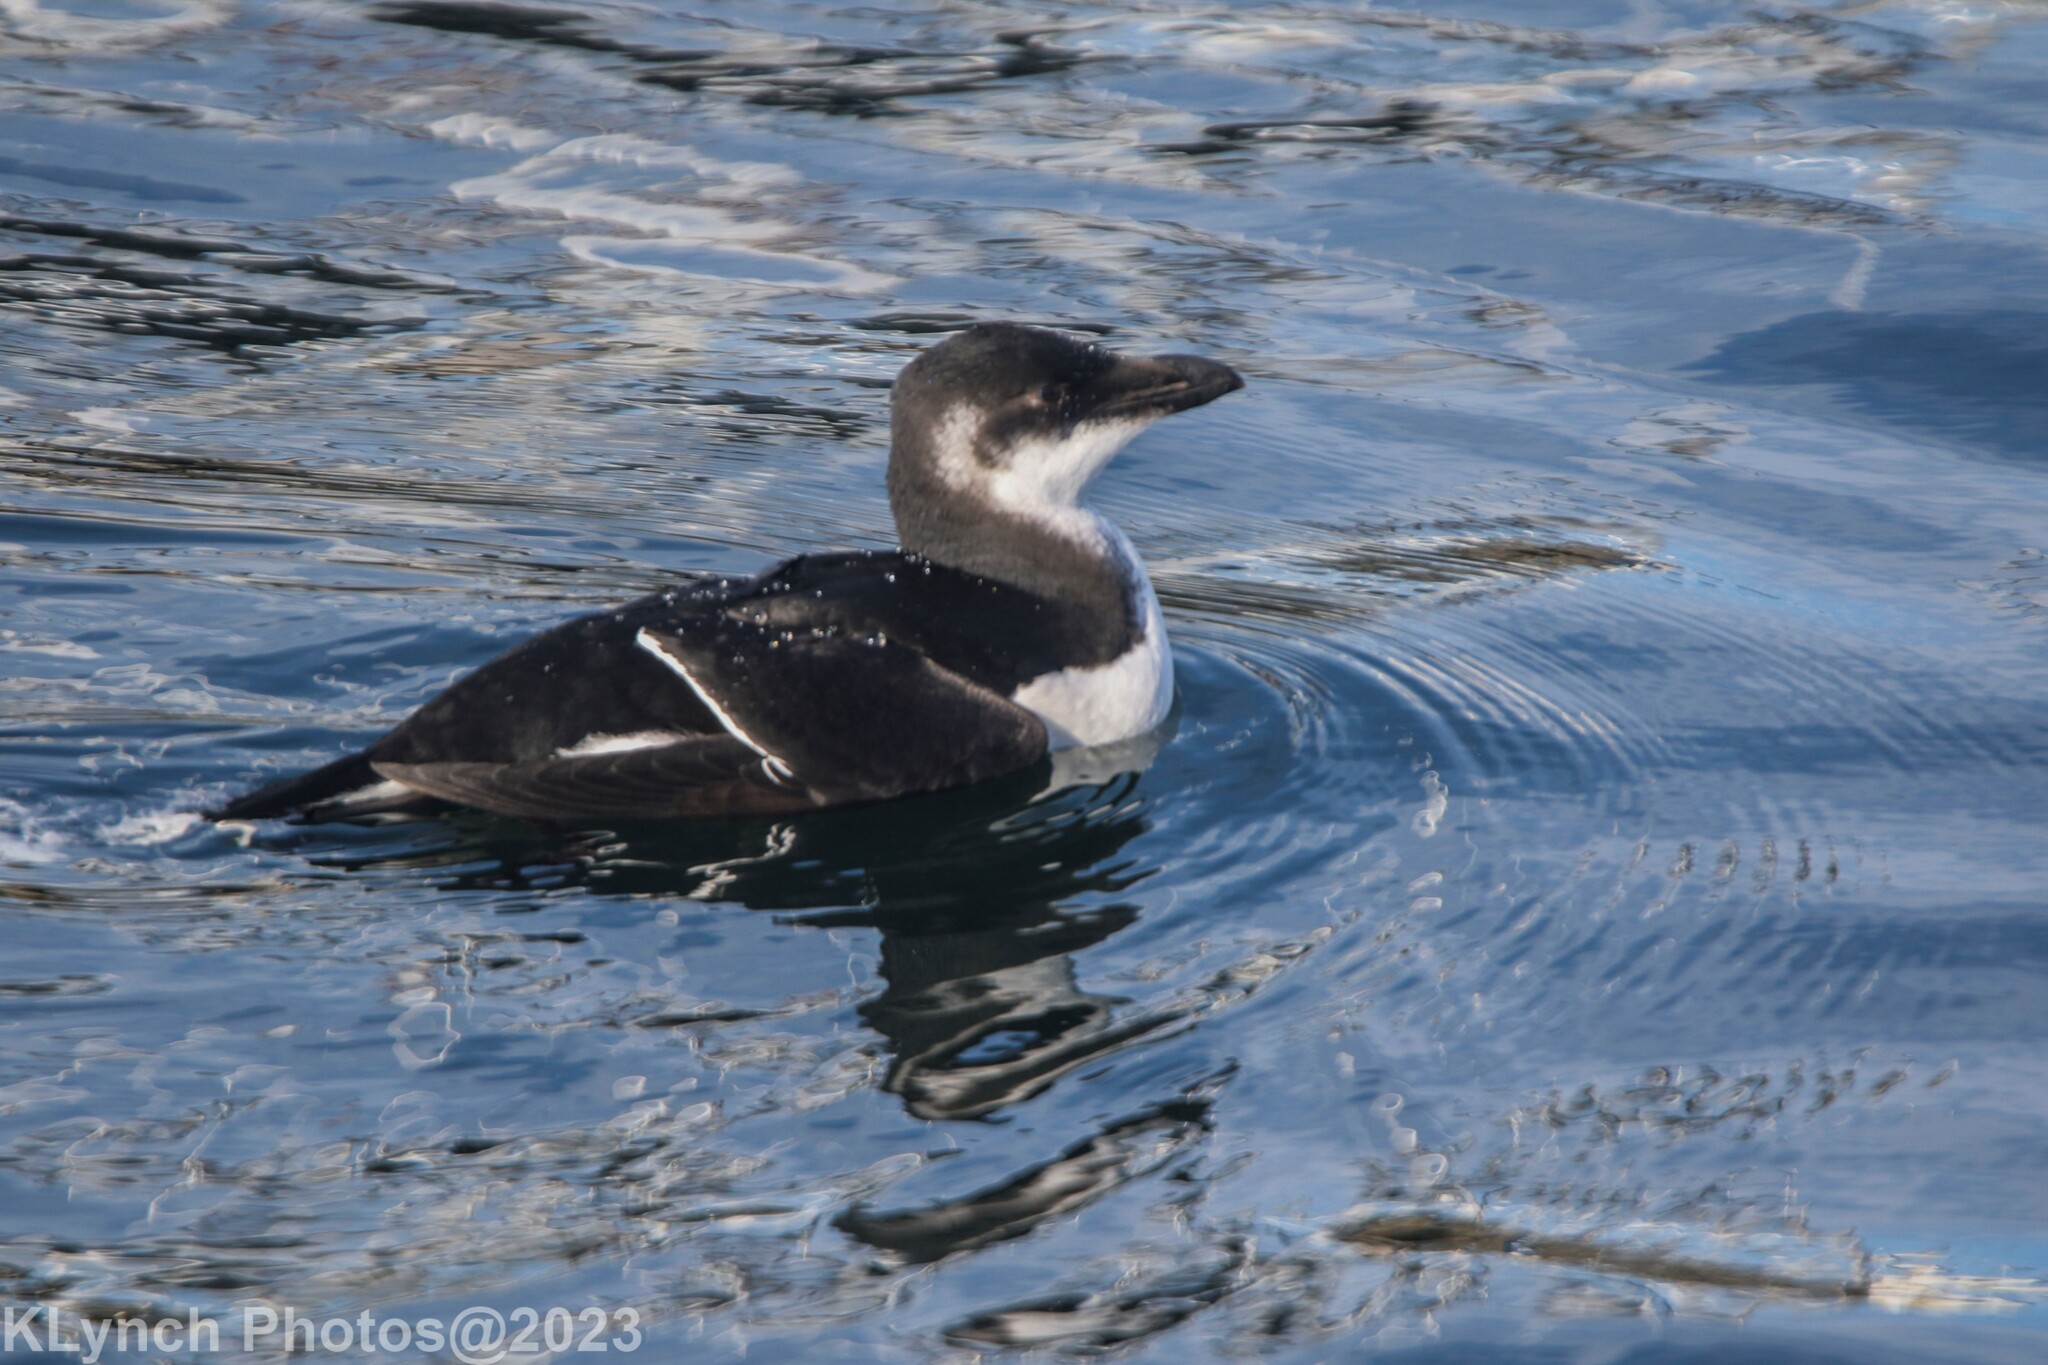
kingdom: Animalia
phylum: Chordata
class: Aves
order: Charadriiformes
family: Alcidae
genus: Alca
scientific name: Alca torda
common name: Razorbill
